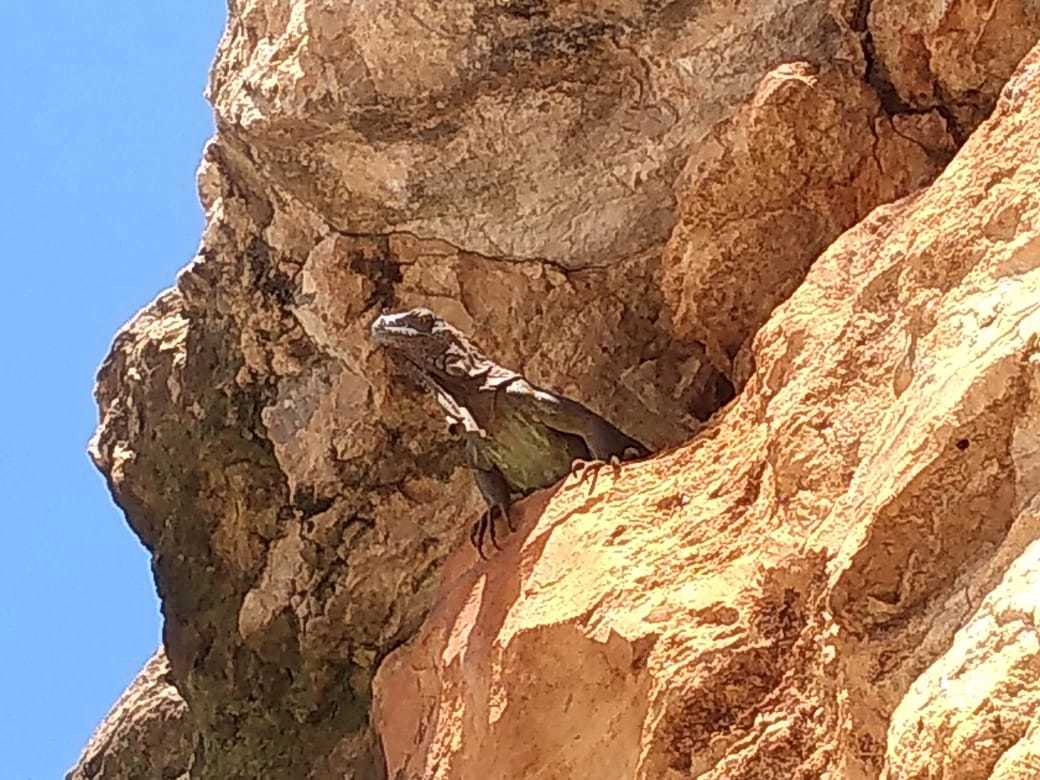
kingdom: Animalia
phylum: Chordata
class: Squamata
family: Iguanidae
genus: Ctenosaura
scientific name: Ctenosaura similis
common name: Black spiny-tailed iguana
